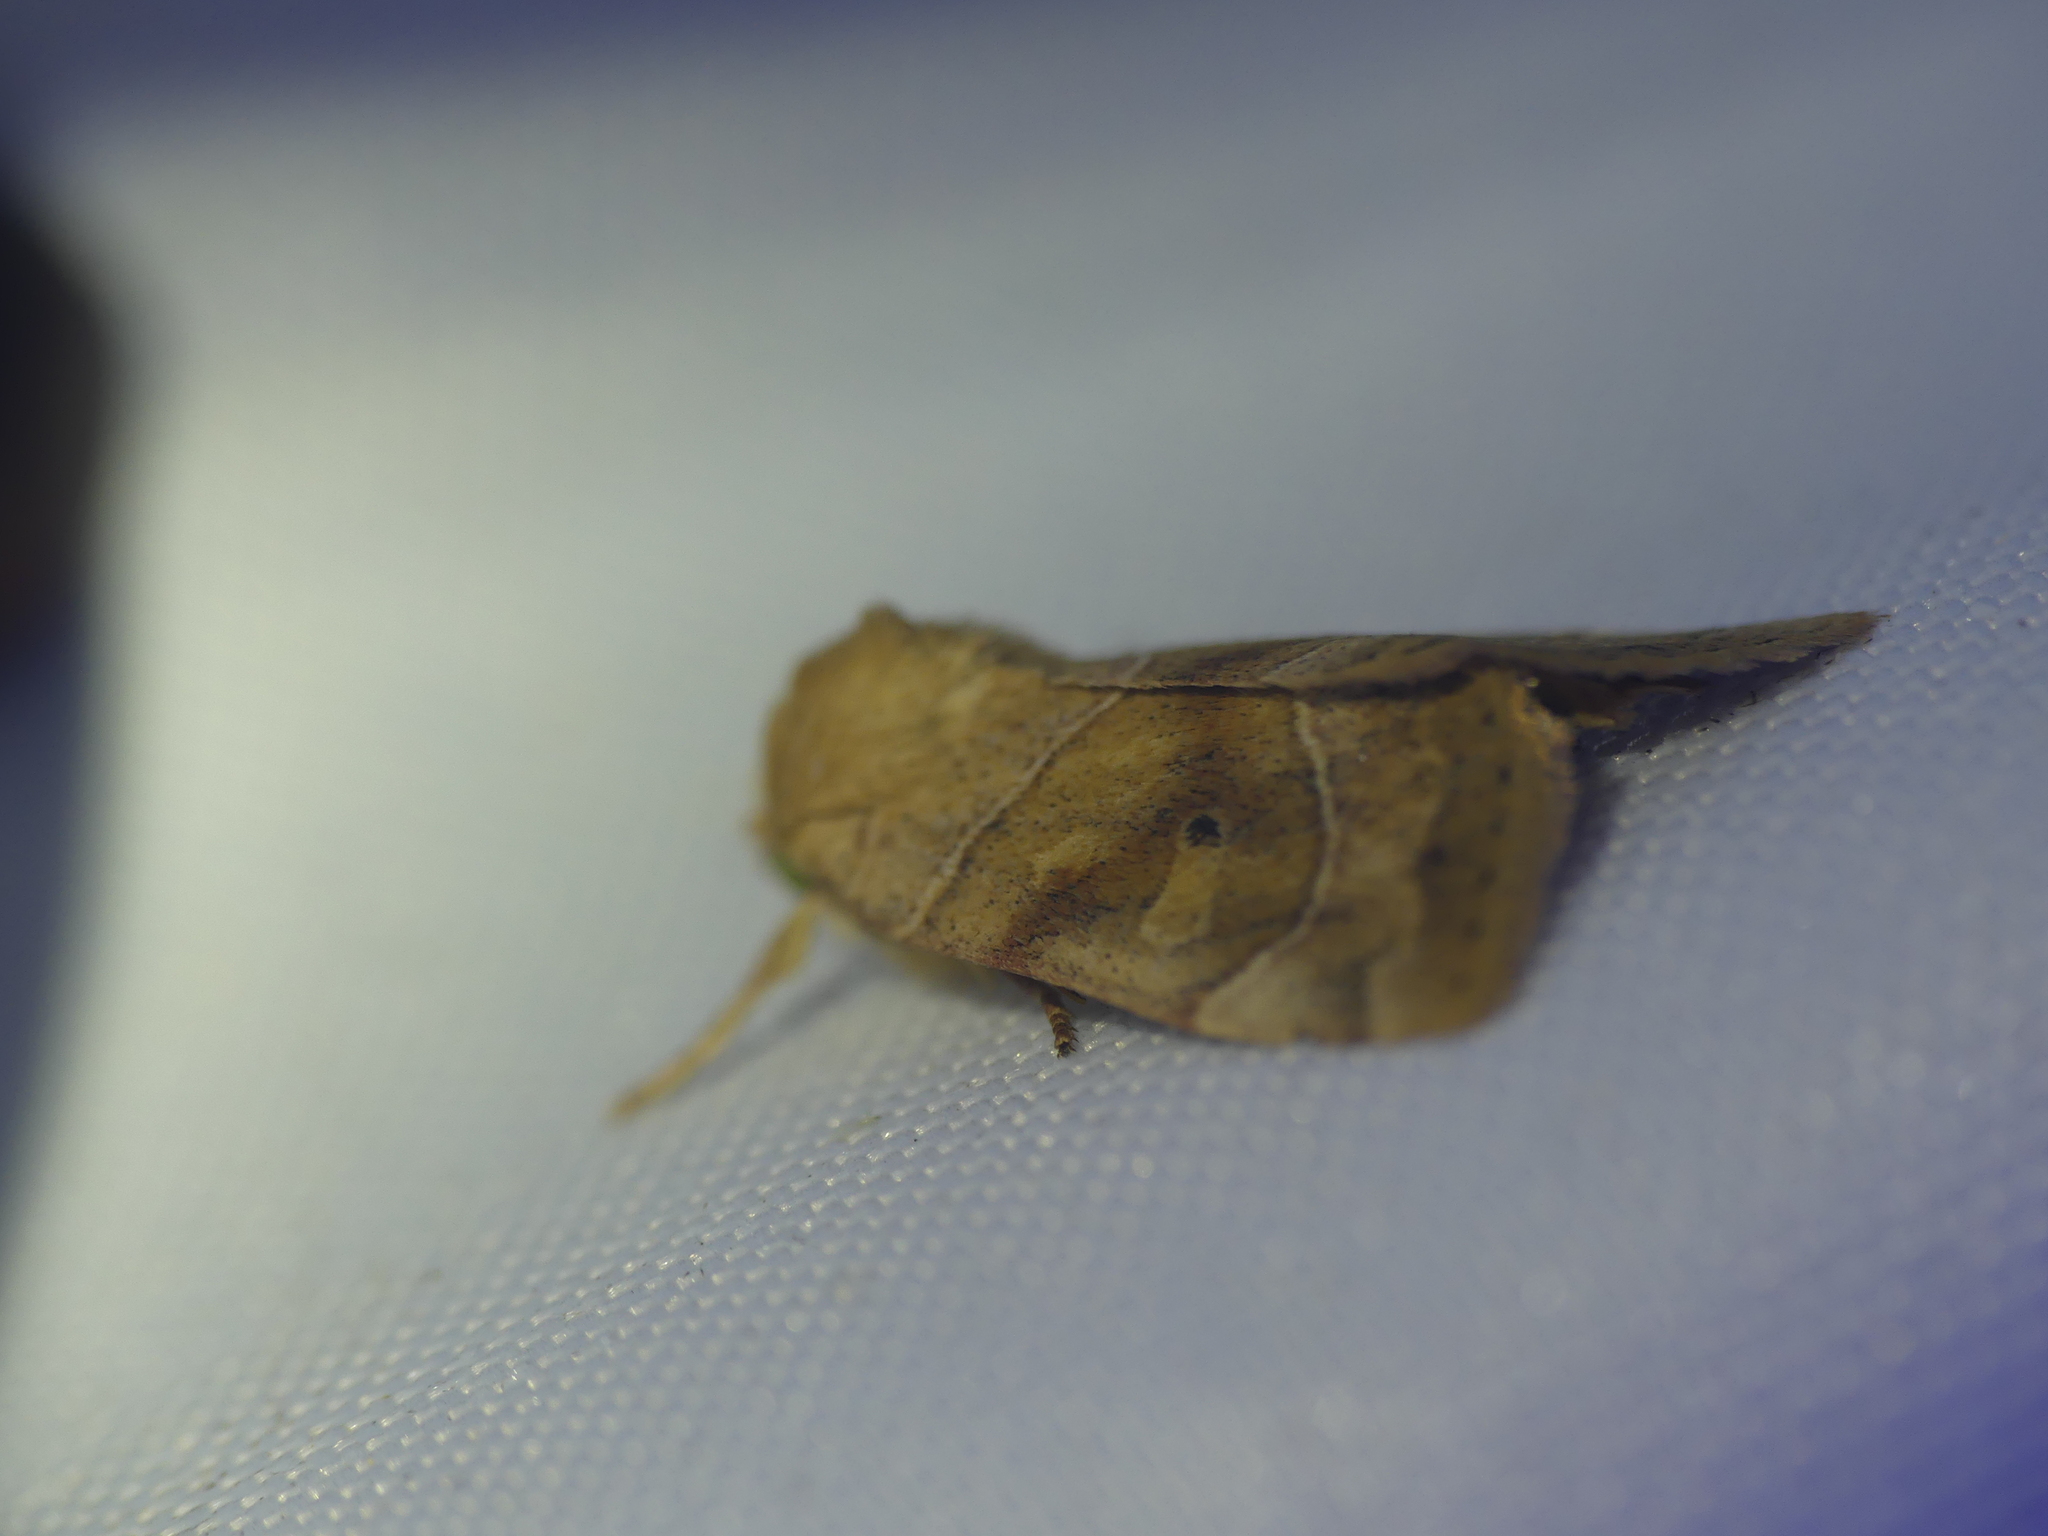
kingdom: Animalia
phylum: Arthropoda
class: Insecta
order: Lepidoptera
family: Noctuidae
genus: Cosmia
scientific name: Cosmia trapezina
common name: Dun-bar
